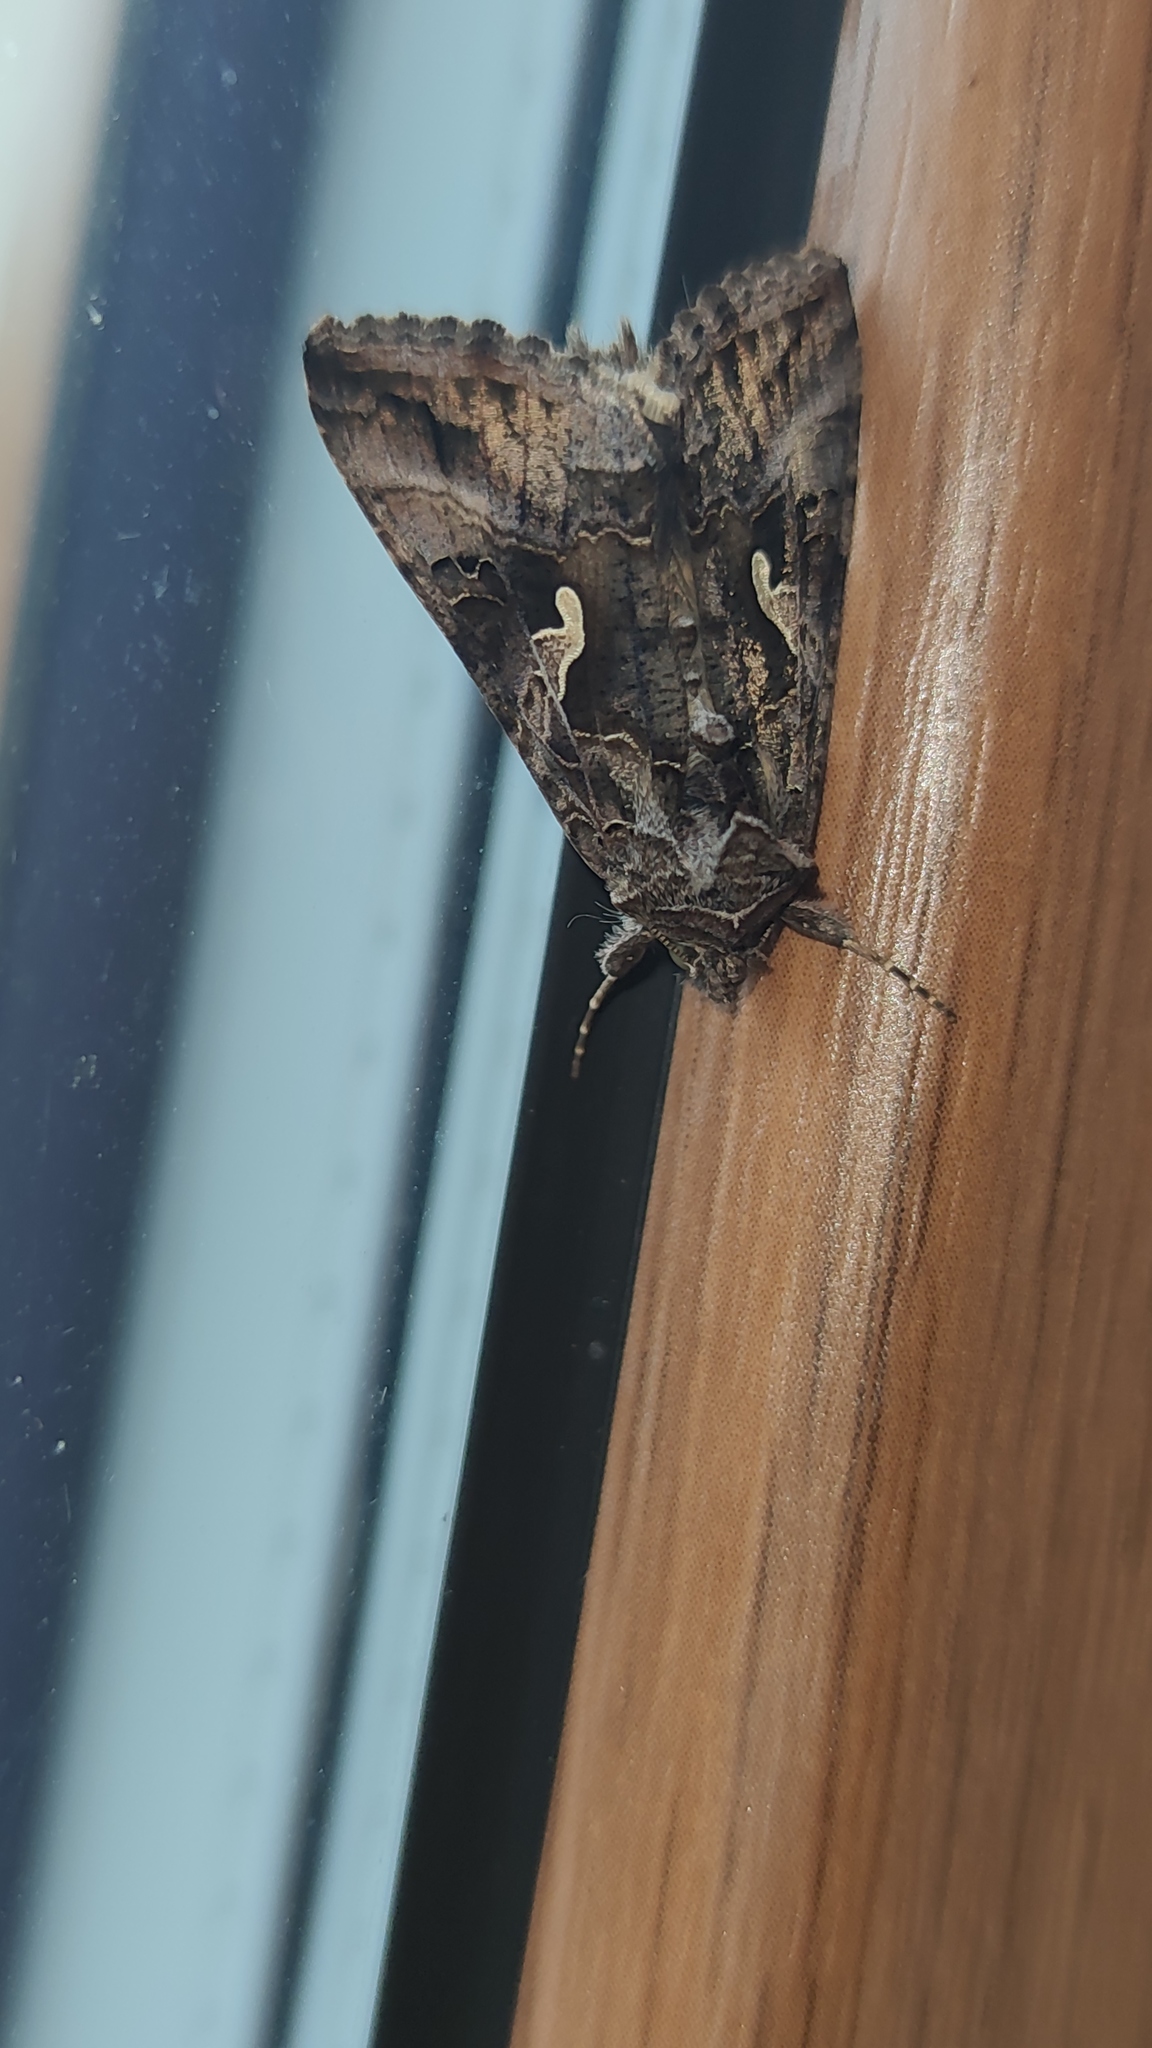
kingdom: Animalia
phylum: Arthropoda
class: Insecta
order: Lepidoptera
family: Noctuidae
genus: Autographa
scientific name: Autographa gamma
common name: Silver y
